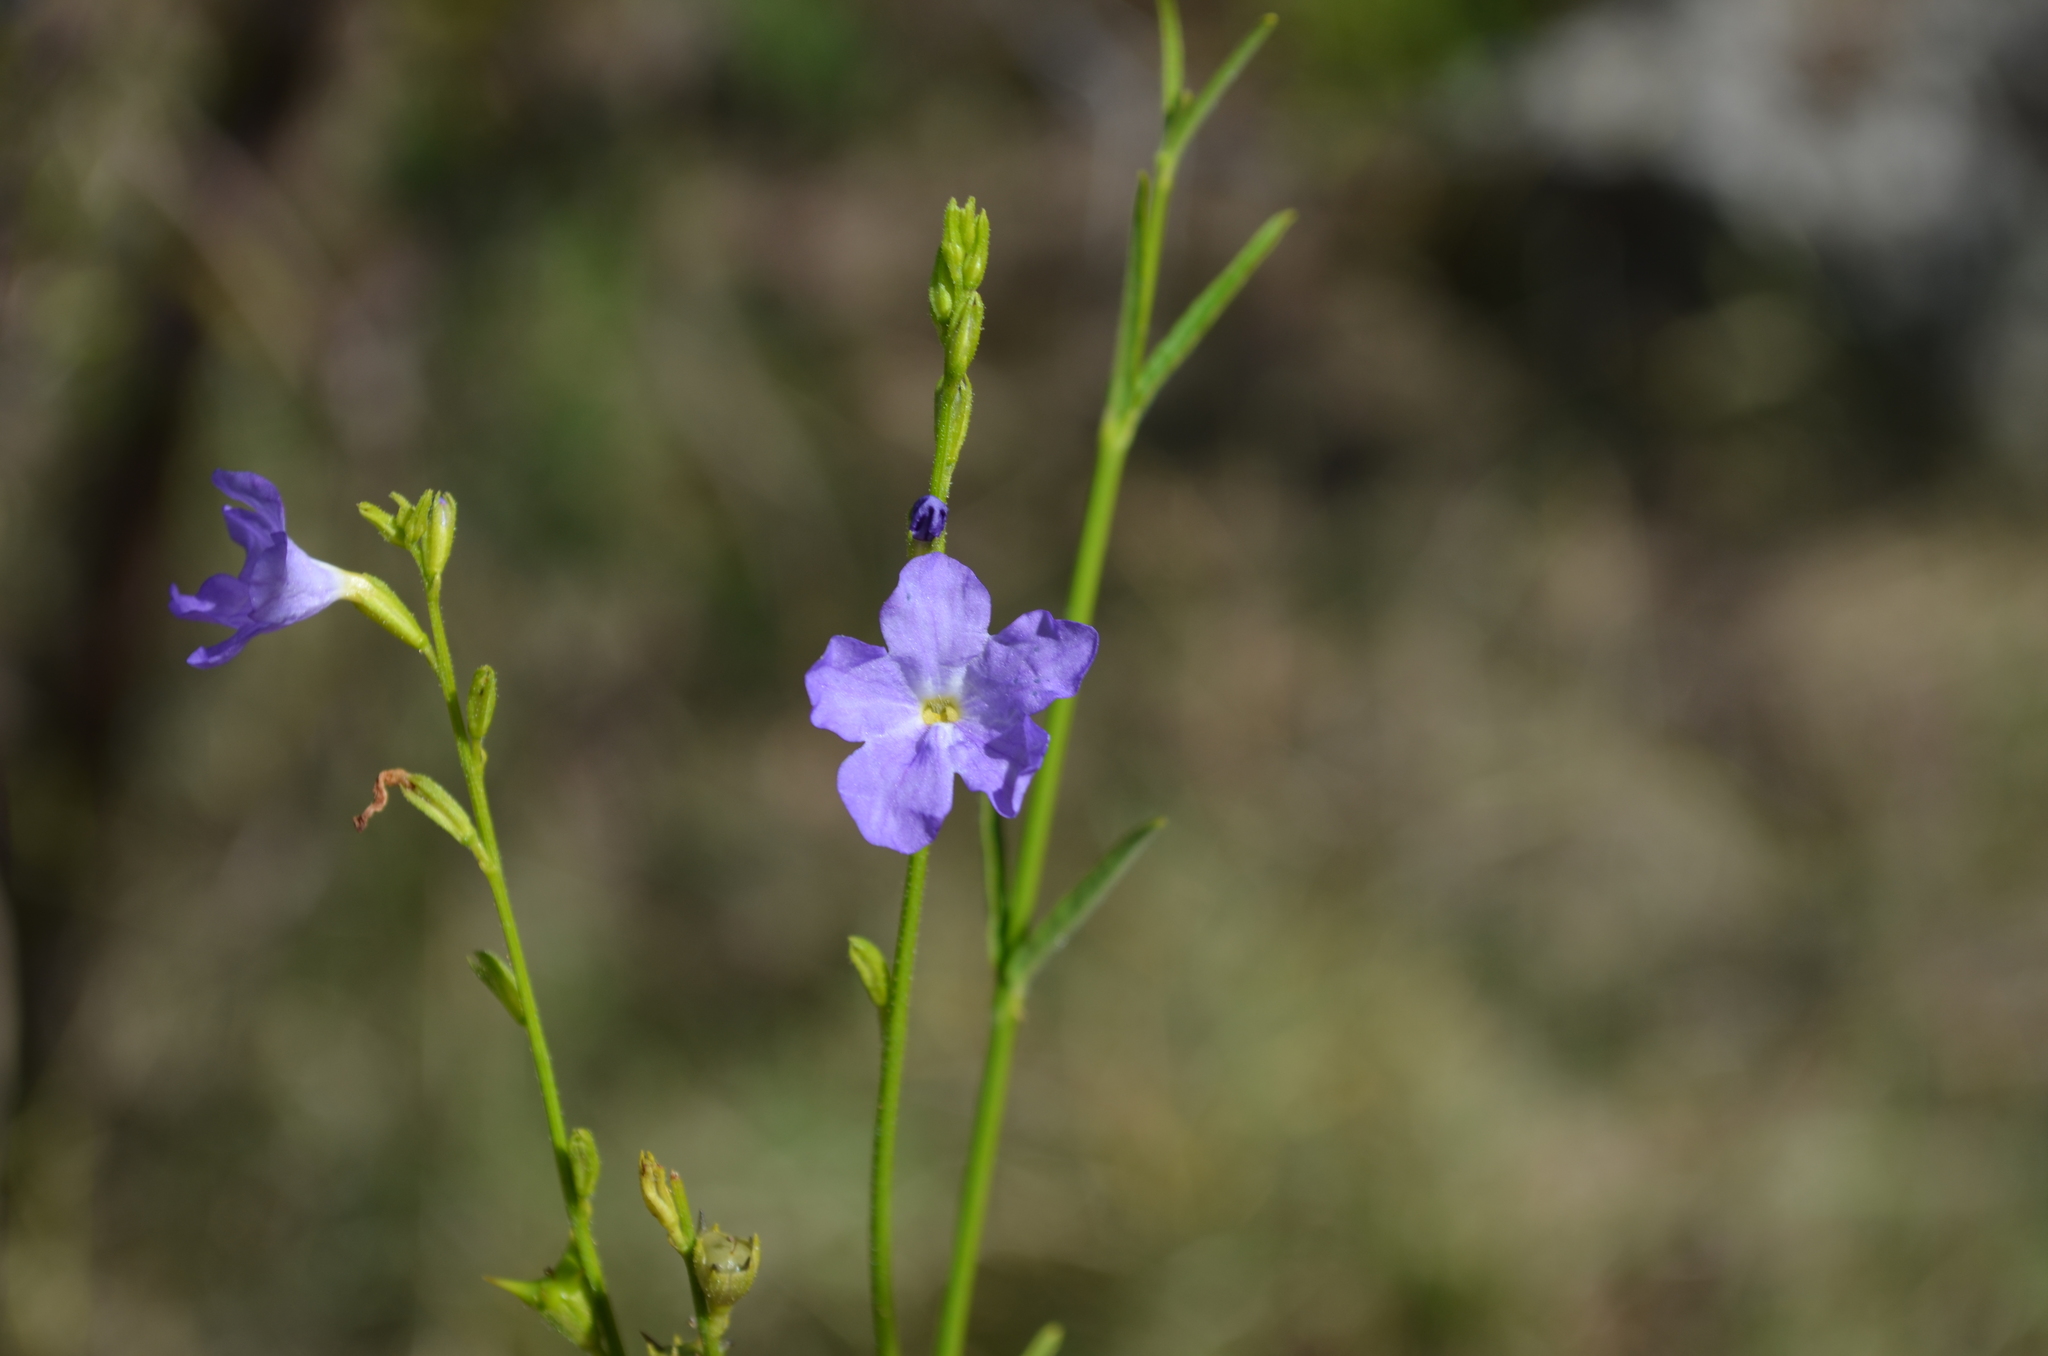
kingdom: Plantae
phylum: Tracheophyta
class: Magnoliopsida
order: Lamiales
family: Verbenaceae
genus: Tamonea
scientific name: Tamonea boxiana
